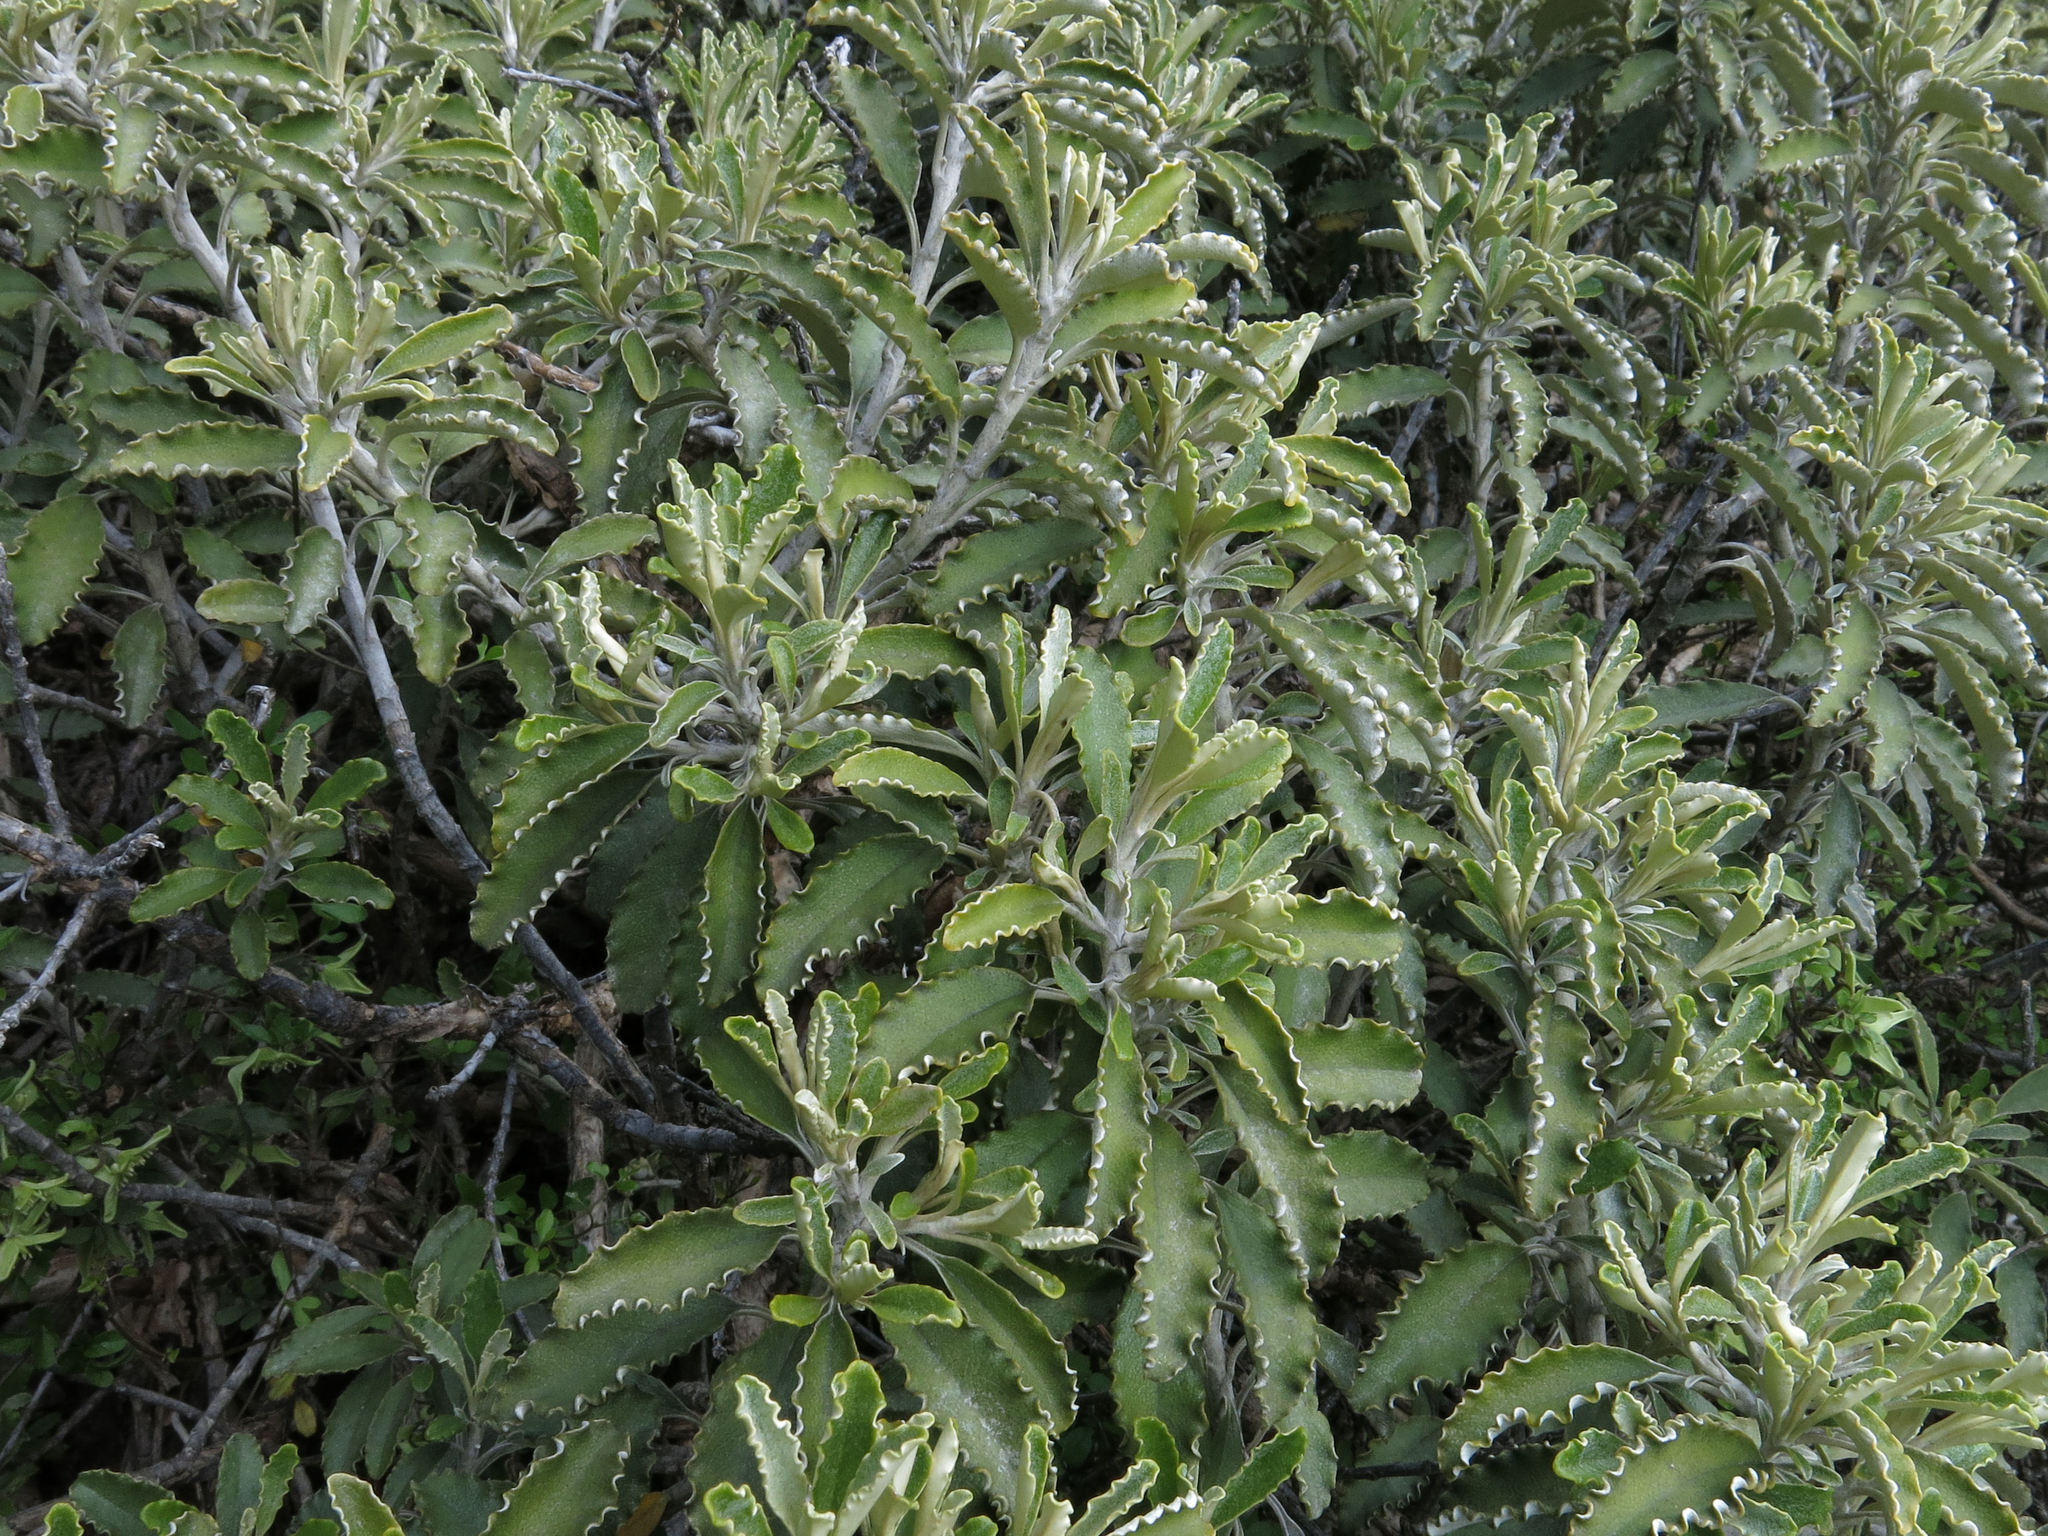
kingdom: Plantae
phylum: Tracheophyta
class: Magnoliopsida
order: Asterales
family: Asteraceae
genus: Brachyglottis
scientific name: Brachyglottis monroi
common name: Monro's ragwort
